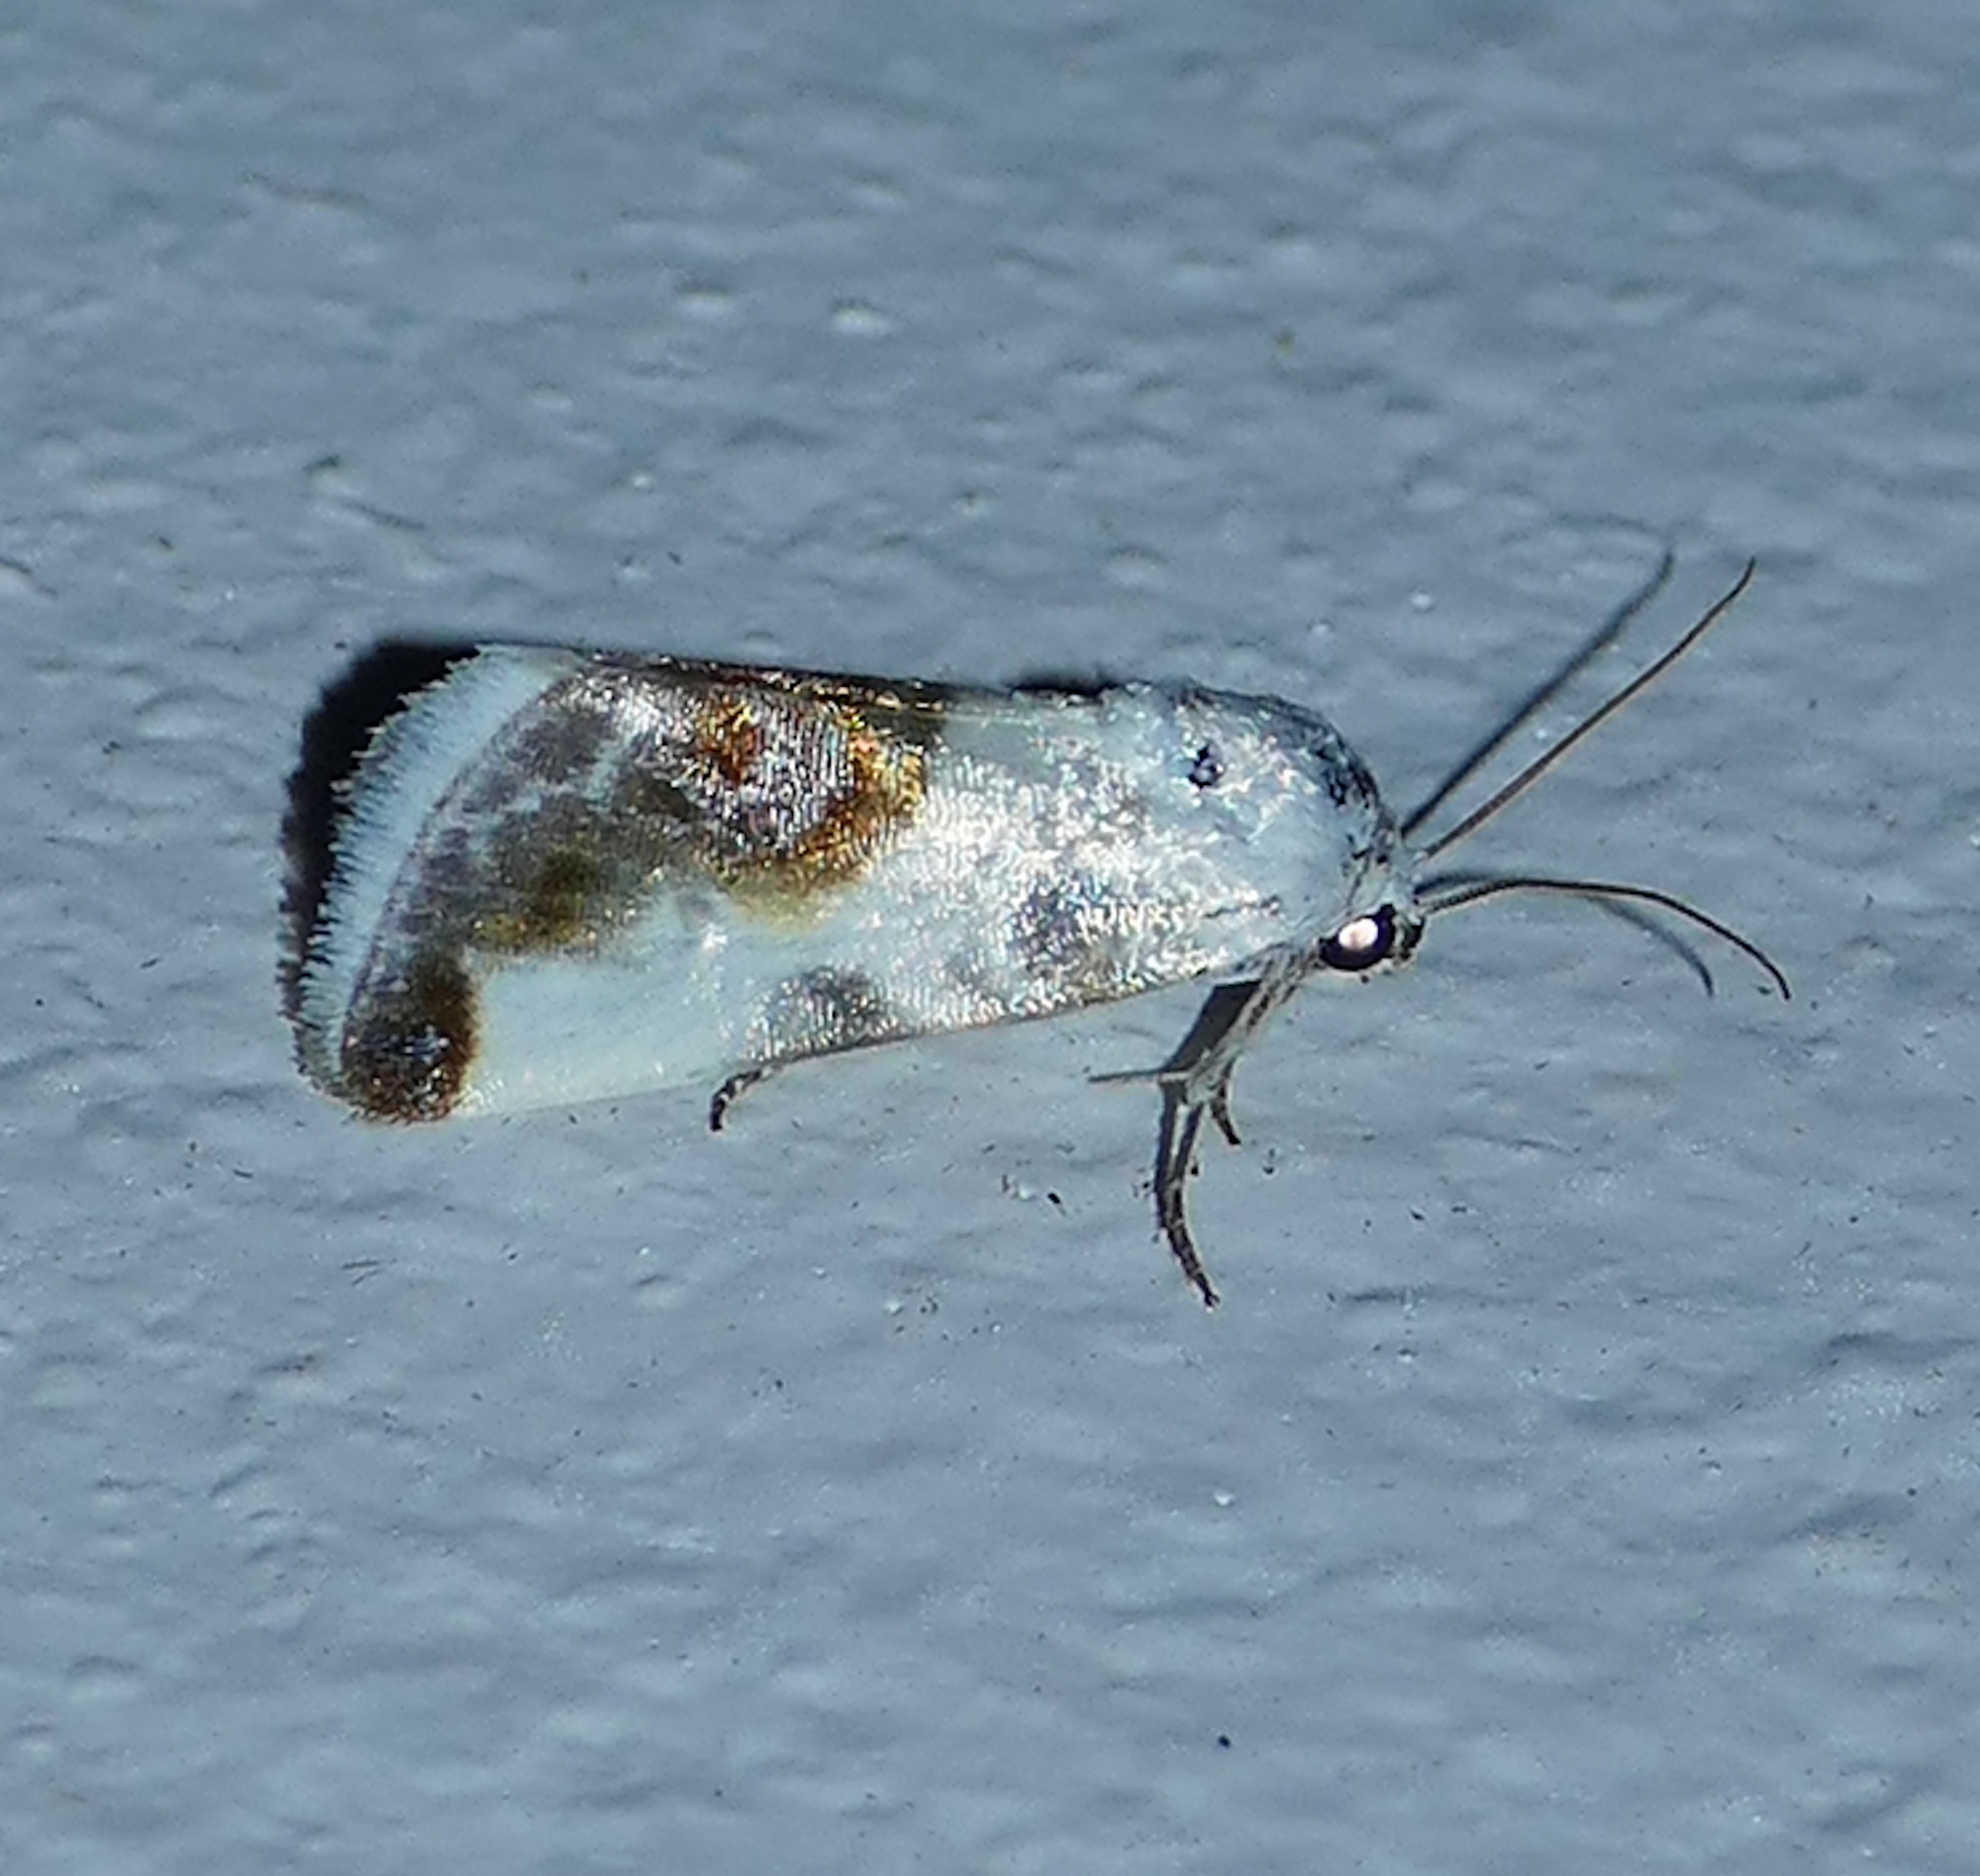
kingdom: Animalia
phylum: Arthropoda
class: Insecta
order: Lepidoptera
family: Noctuidae
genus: Acontia
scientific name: Acontia cretata
